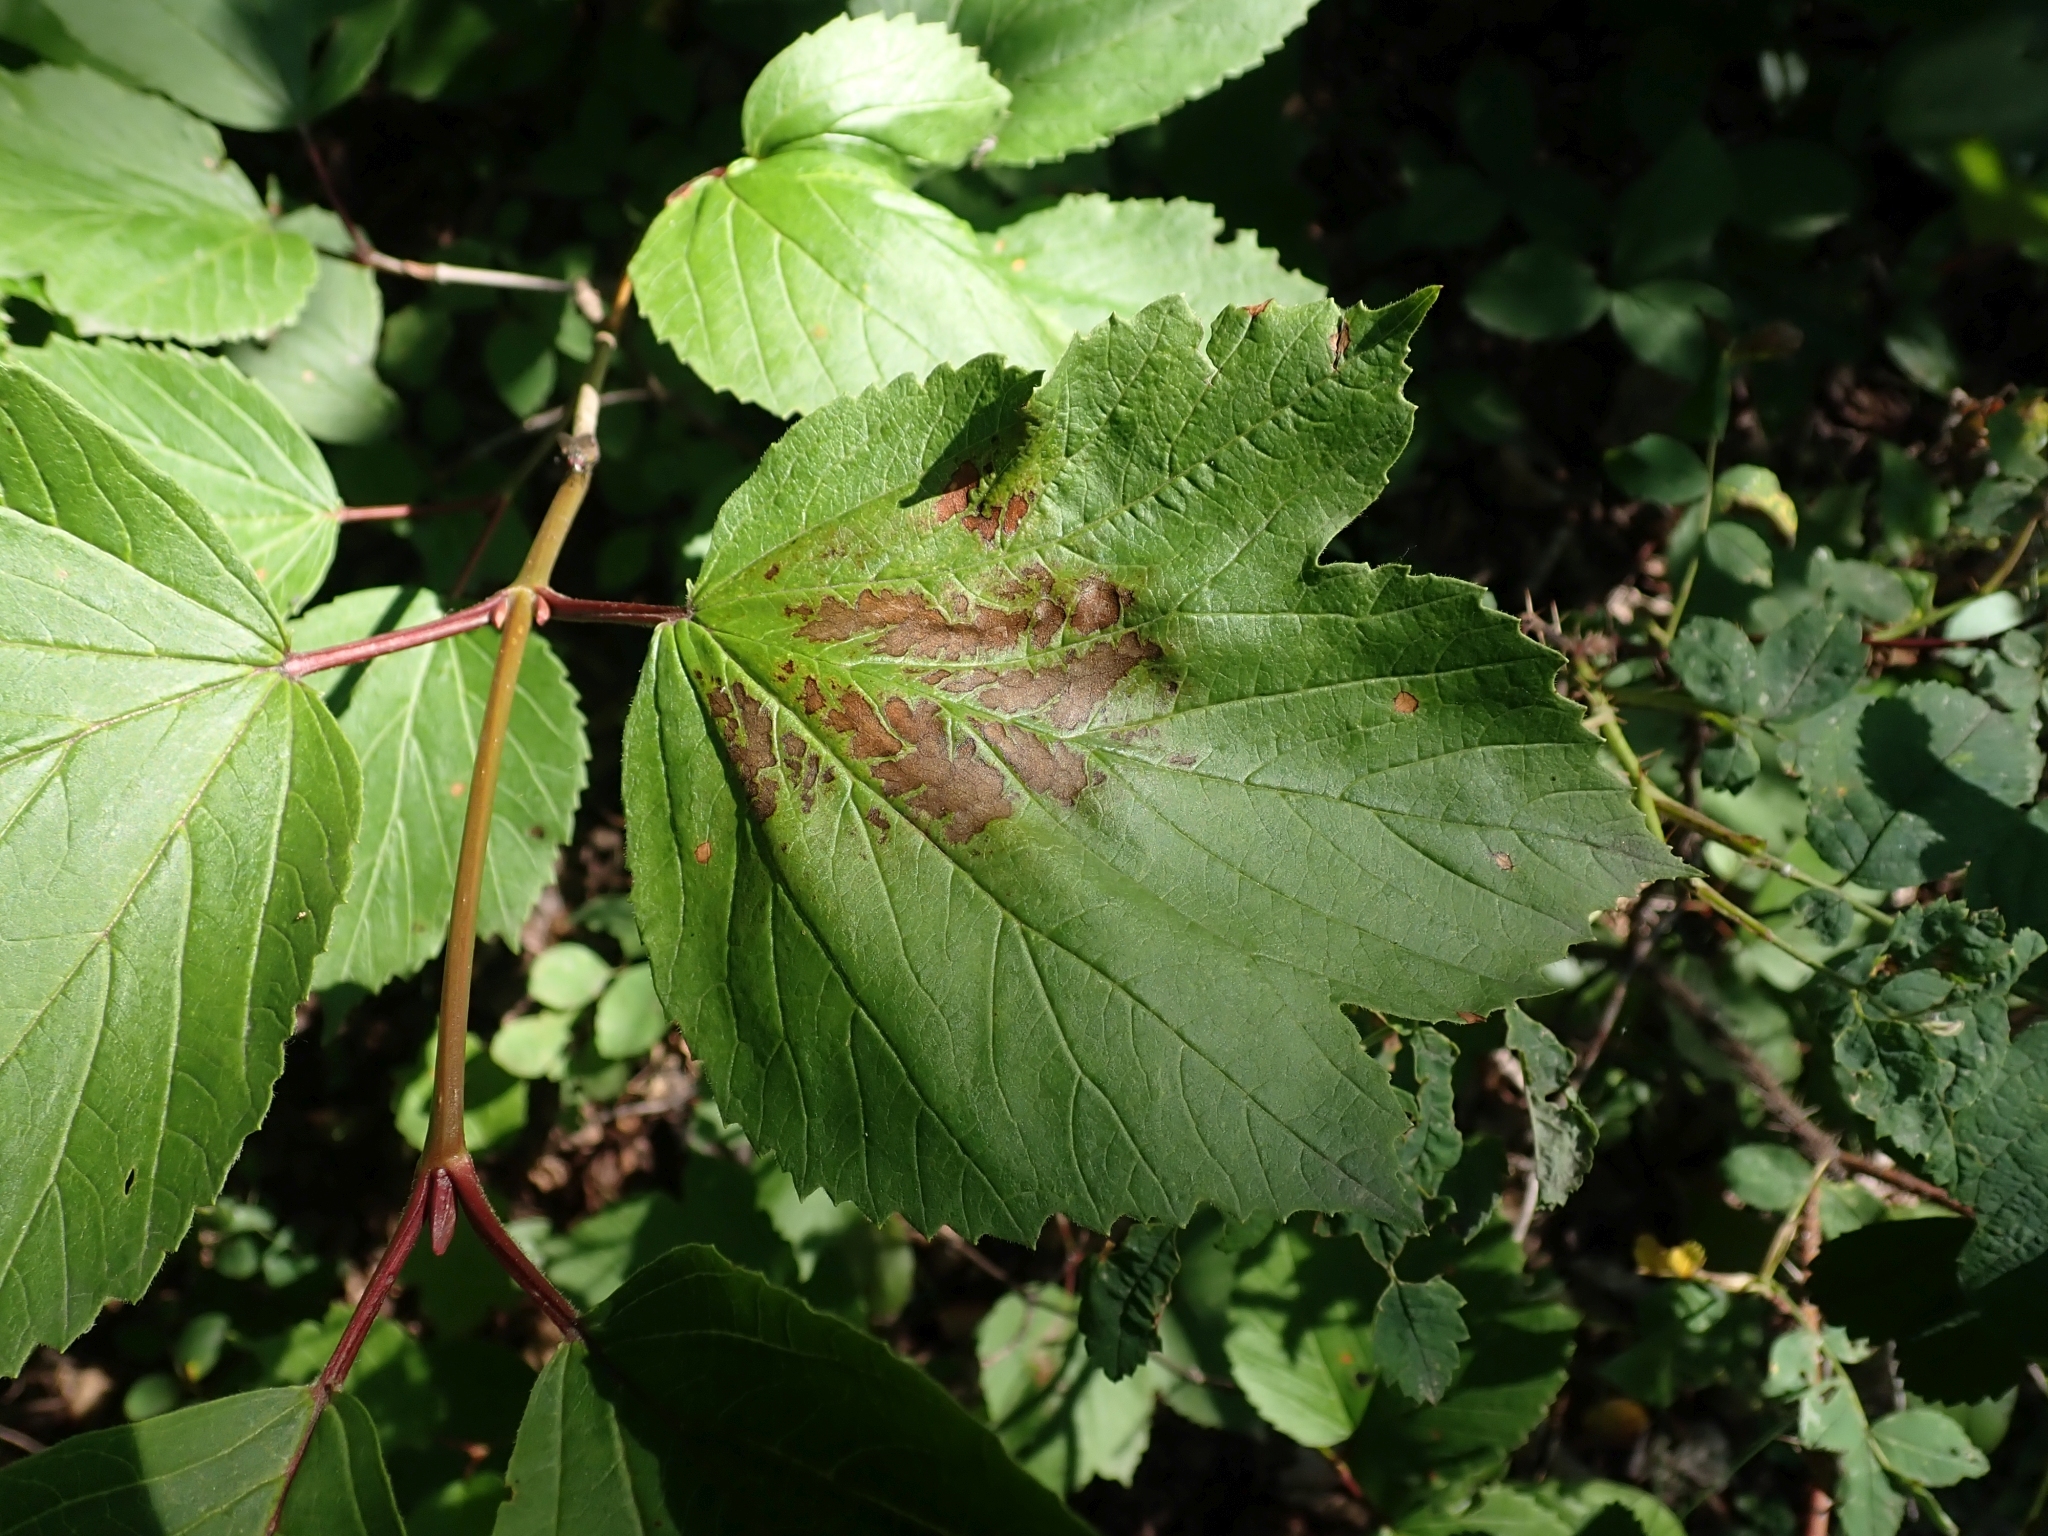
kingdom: Plantae
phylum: Tracheophyta
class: Magnoliopsida
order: Dipsacales
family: Viburnaceae
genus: Viburnum
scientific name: Viburnum edule
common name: Mooseberry
